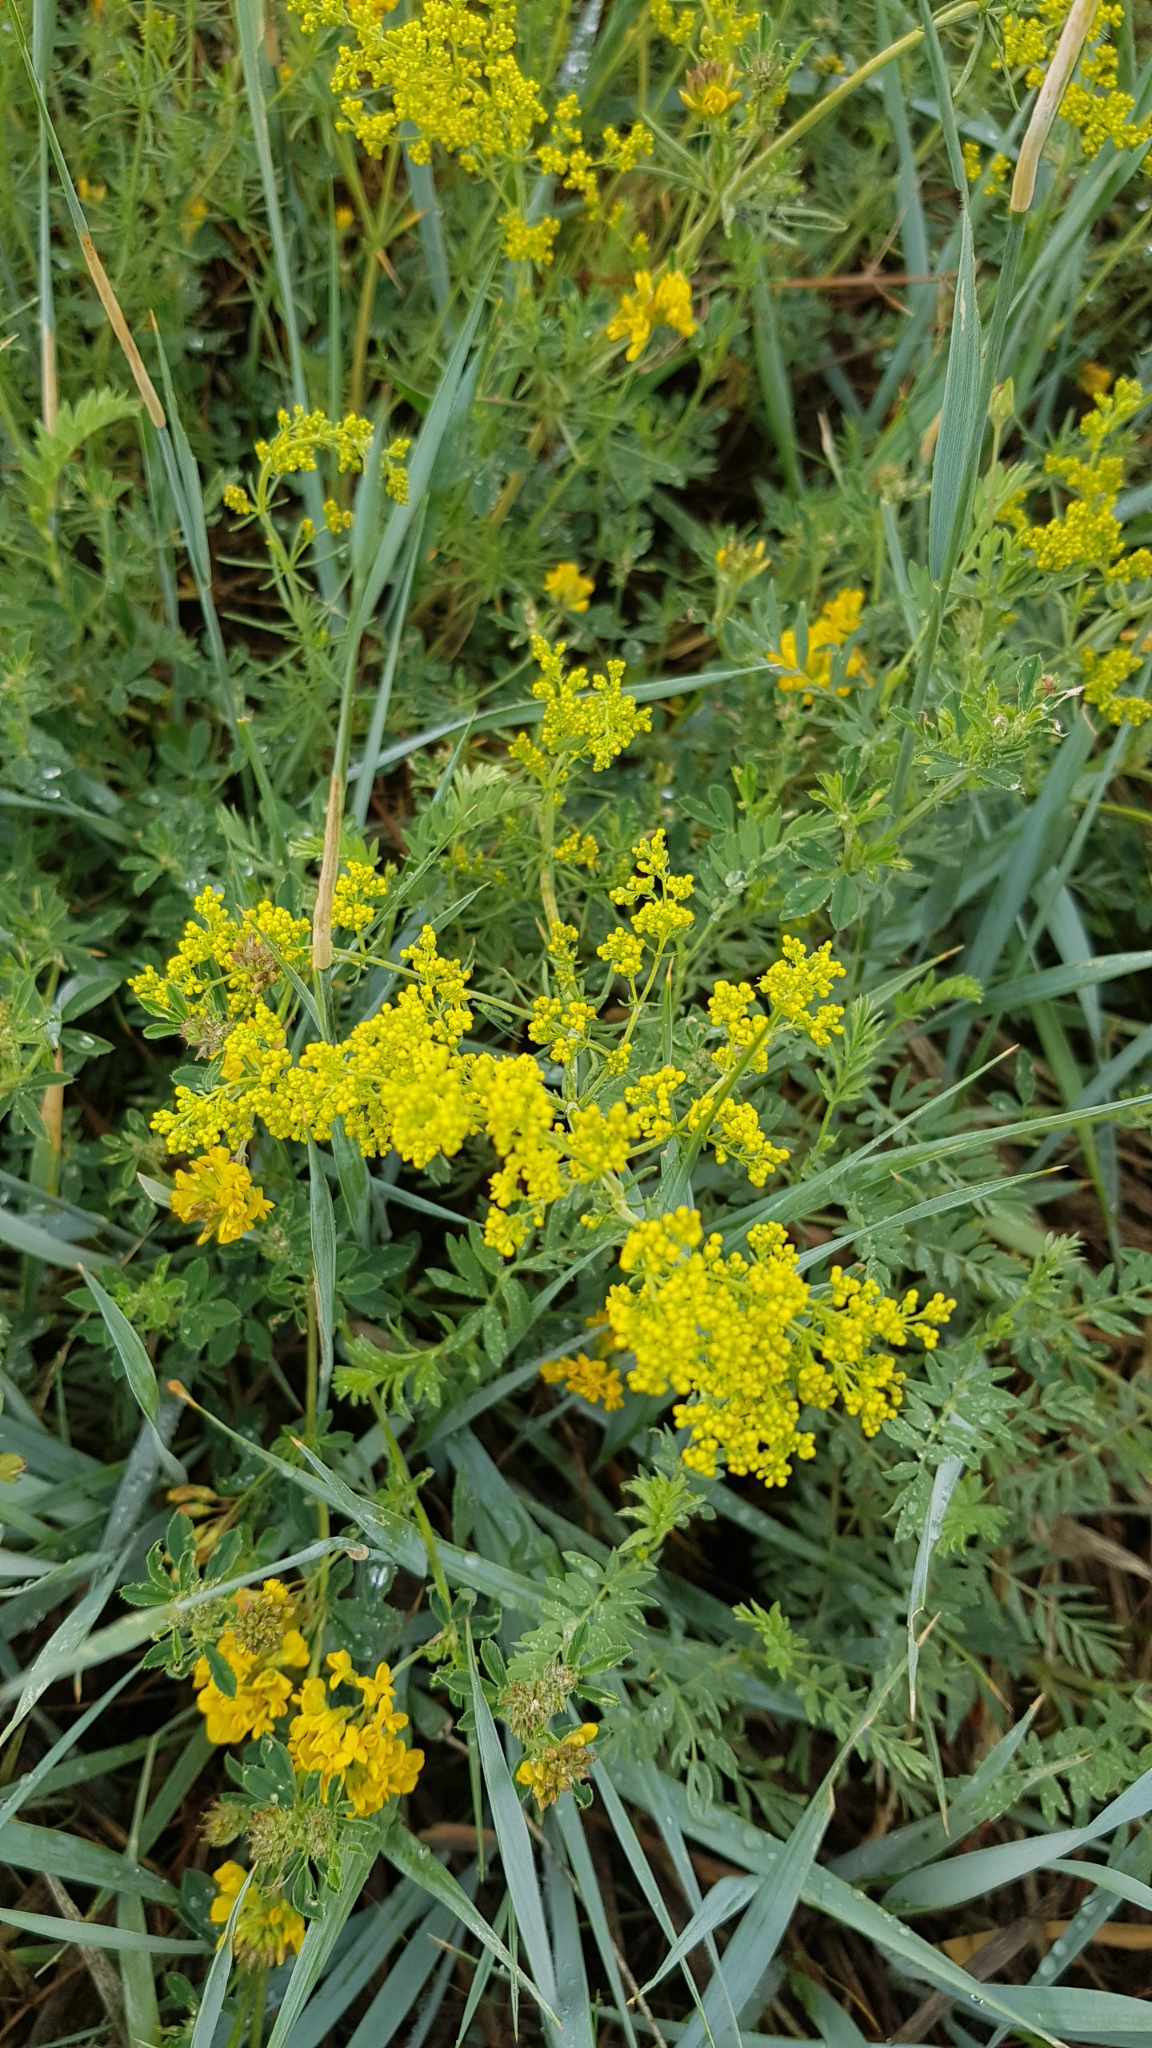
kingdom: Plantae
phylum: Tracheophyta
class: Magnoliopsida
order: Gentianales
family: Rubiaceae
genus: Galium
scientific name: Galium verum
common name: Lady's bedstraw
